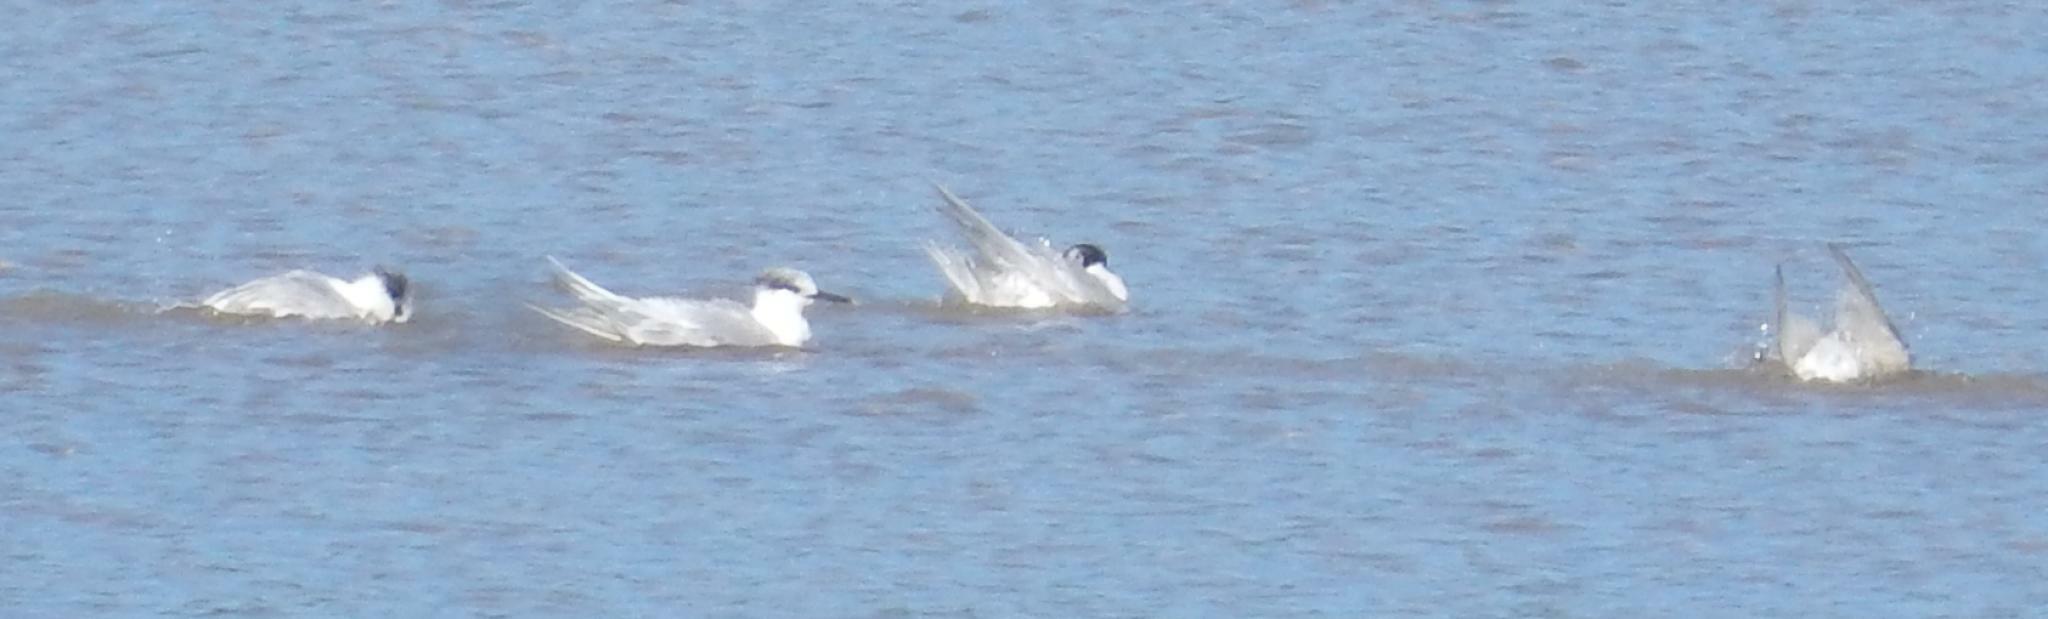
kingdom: Animalia
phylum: Chordata
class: Aves
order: Charadriiformes
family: Laridae
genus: Sterna
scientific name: Sterna hirundo
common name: Common tern
